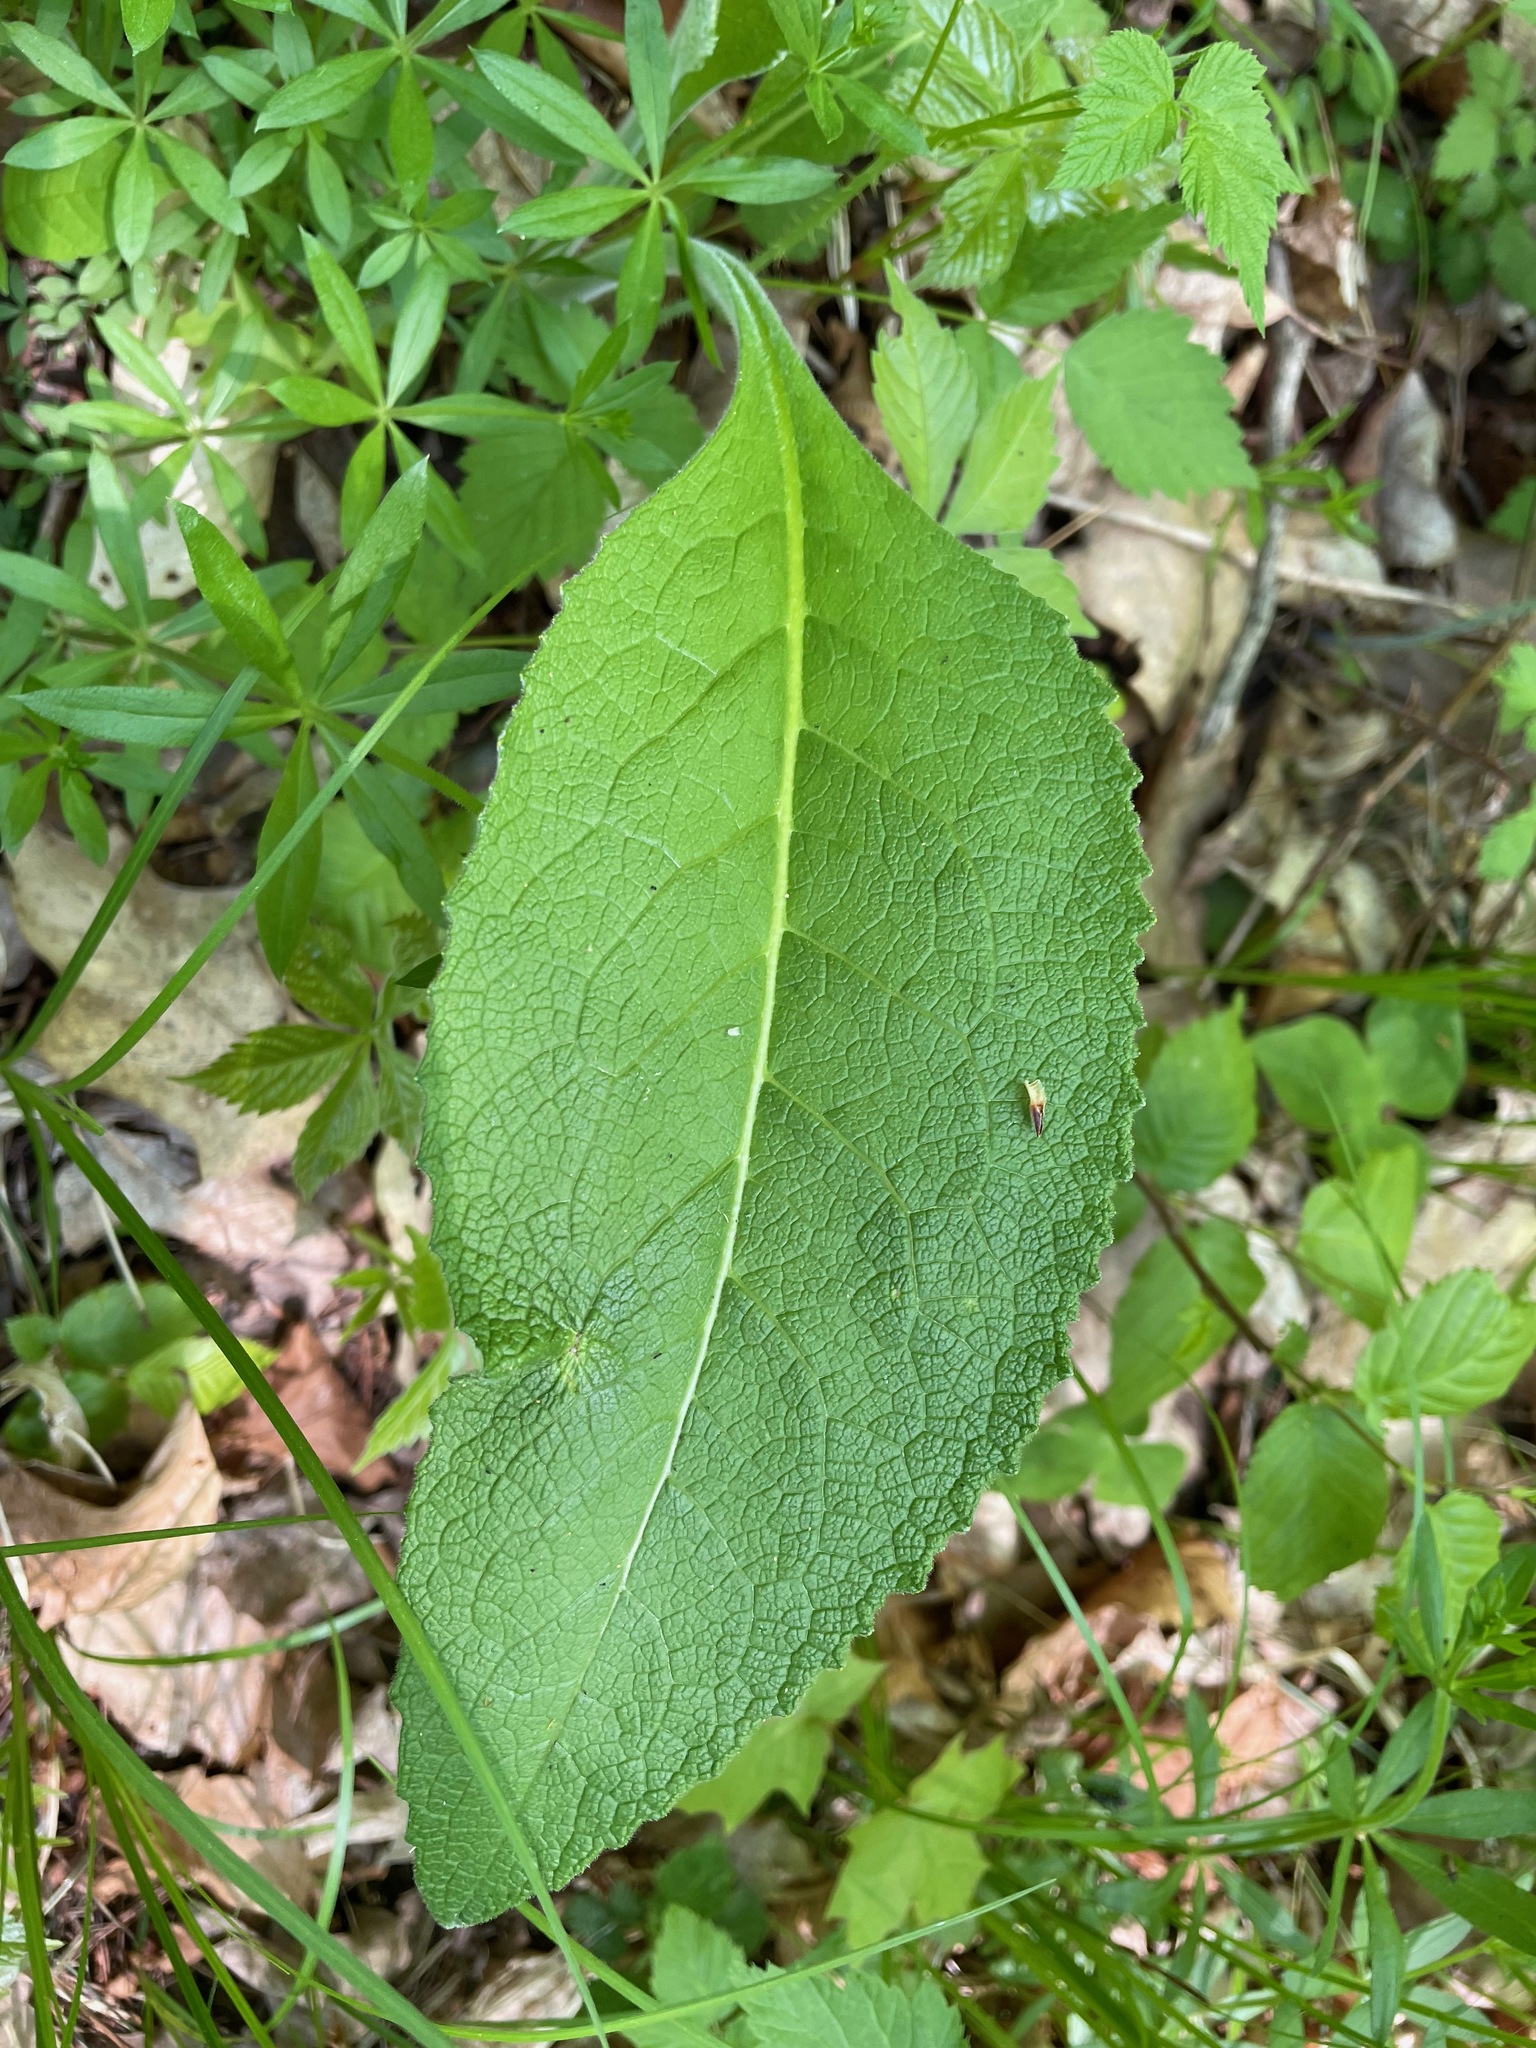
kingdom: Plantae
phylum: Tracheophyta
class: Magnoliopsida
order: Asterales
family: Asteraceae
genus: Inula
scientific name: Inula helenium
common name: Elecampane
